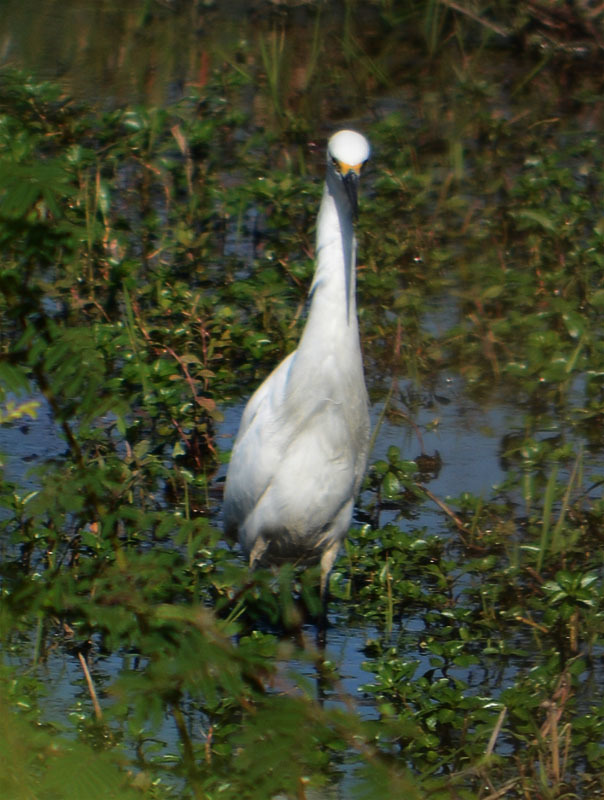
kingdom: Animalia
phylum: Chordata
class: Aves
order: Pelecaniformes
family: Ardeidae
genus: Egretta
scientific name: Egretta thula
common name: Snowy egret
